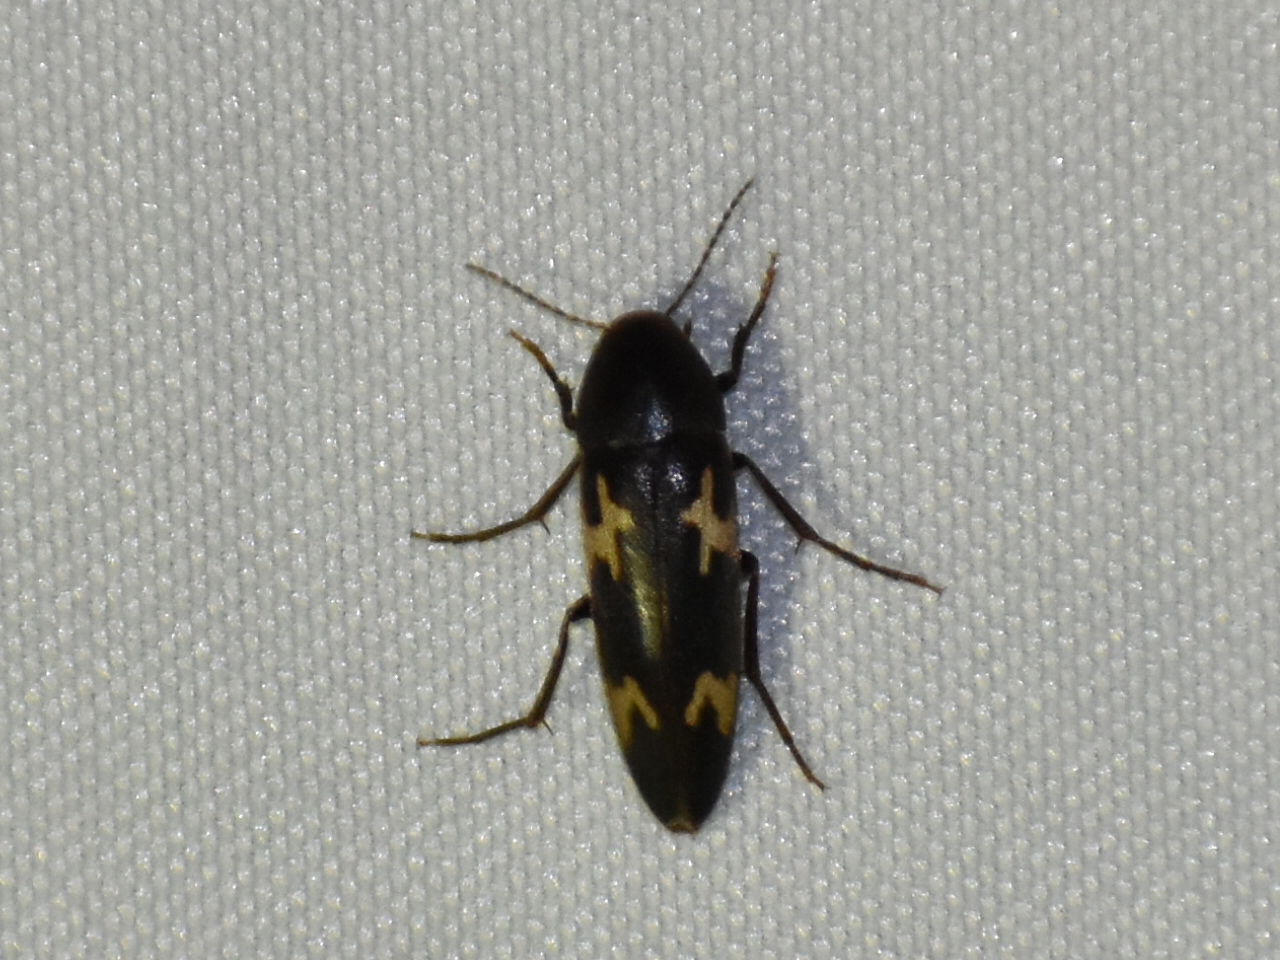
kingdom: Animalia
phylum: Arthropoda
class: Insecta
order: Coleoptera
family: Melandryidae
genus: Dircaea
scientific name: Dircaea liturata
